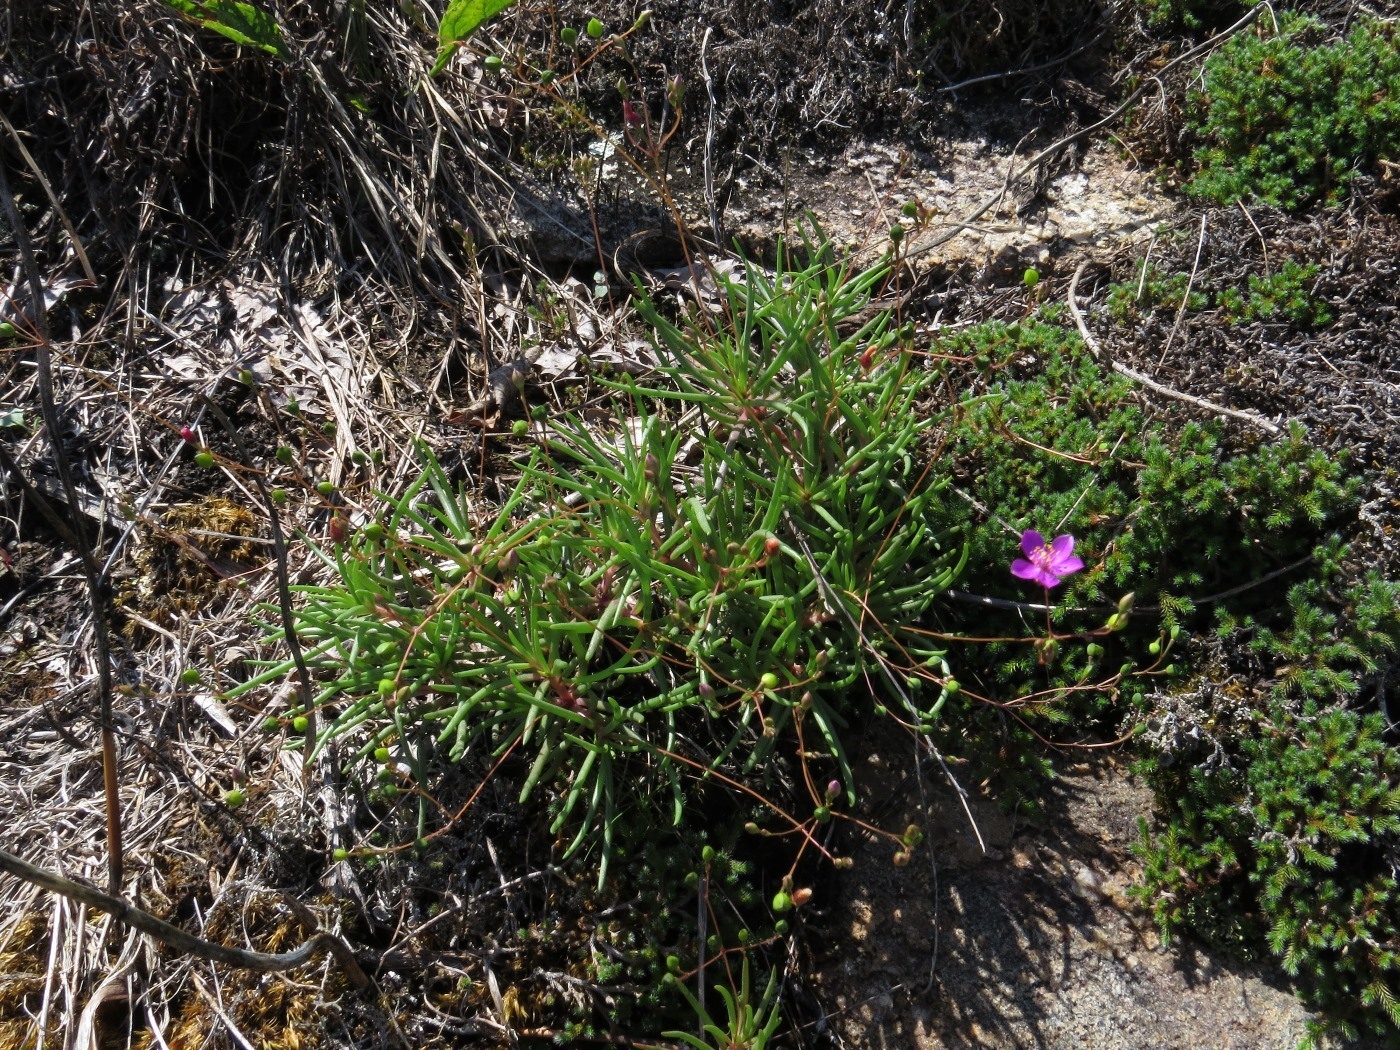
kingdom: Plantae
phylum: Tracheophyta
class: Magnoliopsida
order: Caryophyllales
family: Montiaceae
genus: Phemeranthus
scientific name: Phemeranthus teretifolius
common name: Quill fameflower
